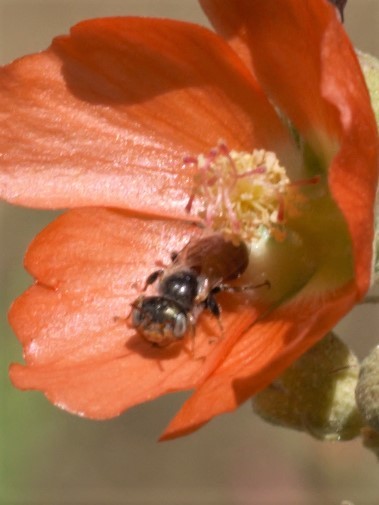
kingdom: Animalia
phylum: Arthropoda
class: Insecta
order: Hymenoptera
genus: Macroteropsis
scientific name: Macroteropsis
